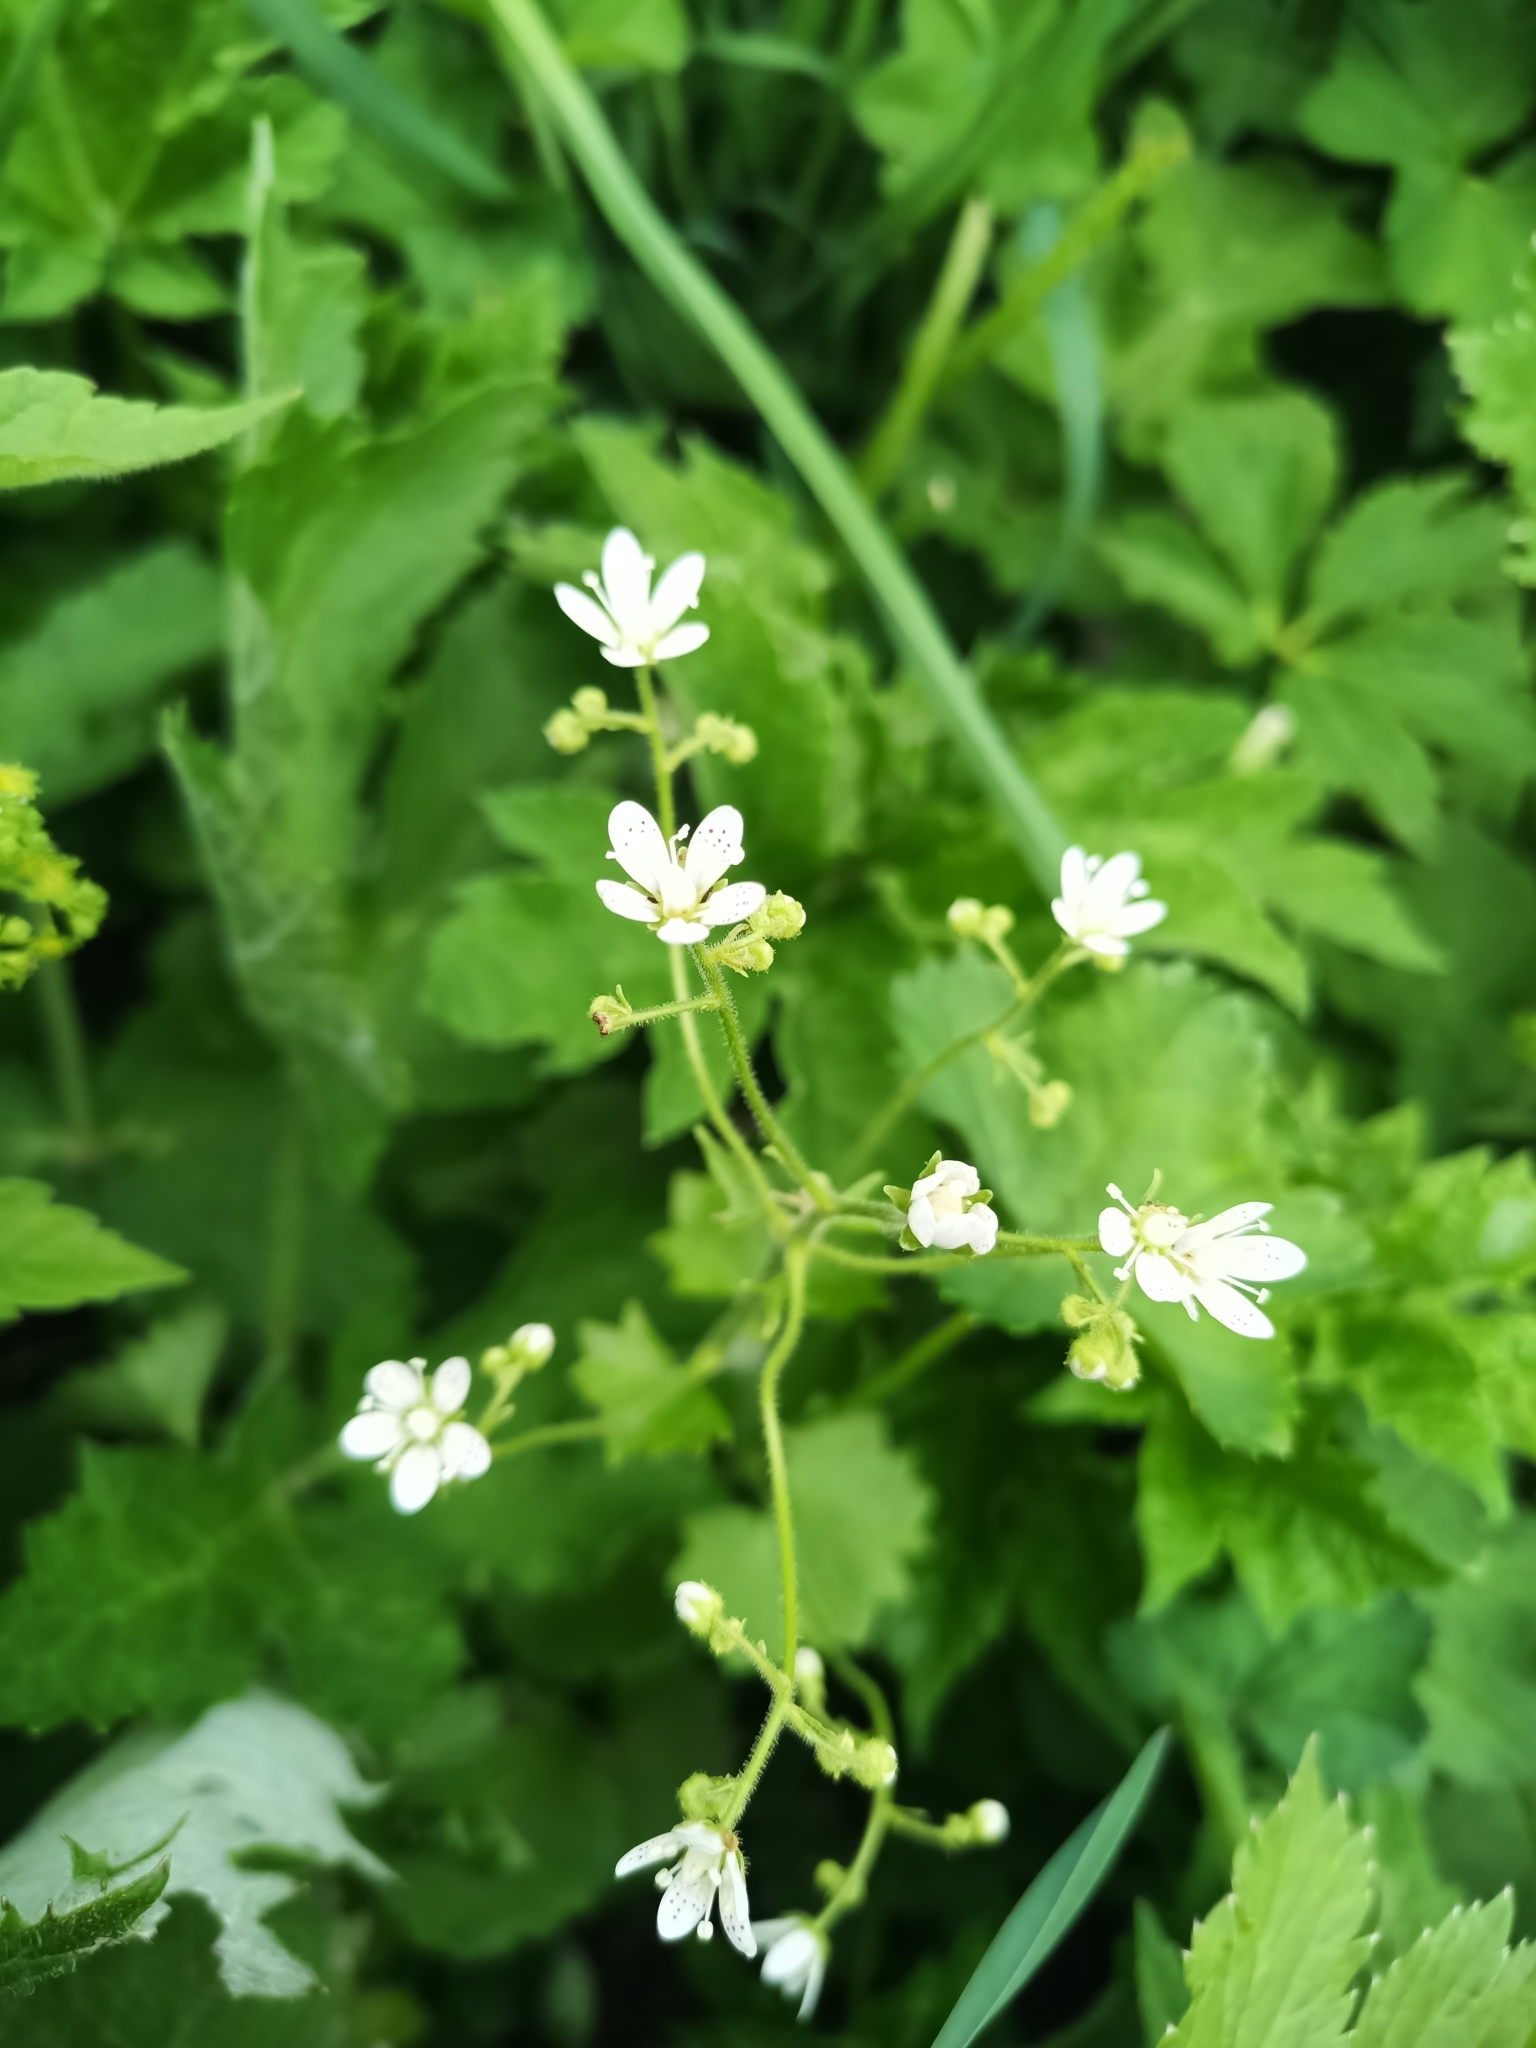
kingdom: Plantae
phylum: Tracheophyta
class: Magnoliopsida
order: Saxifragales
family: Saxifragaceae
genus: Saxifraga
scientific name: Saxifraga rotundifolia
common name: Round-leaved saxifrage
